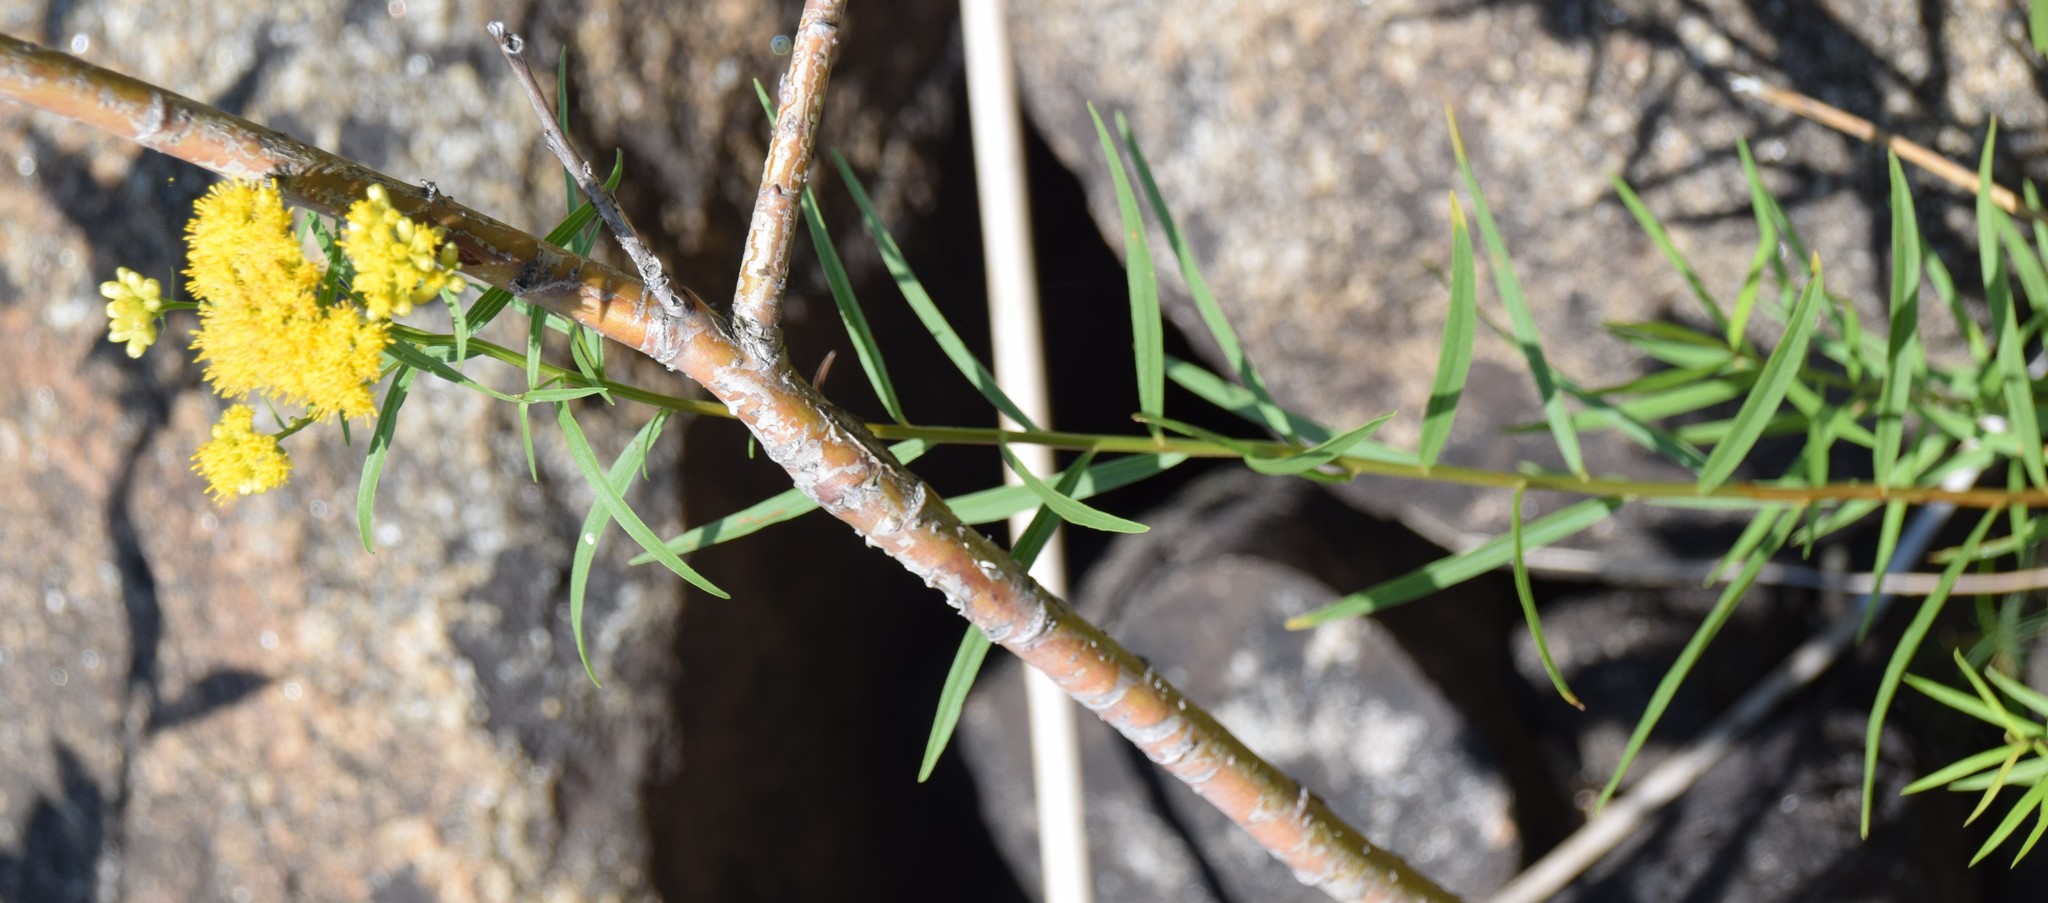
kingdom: Plantae
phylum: Tracheophyta
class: Magnoliopsida
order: Asterales
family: Asteraceae
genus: Euthamia
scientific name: Euthamia graminifolia
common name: Common goldentop
